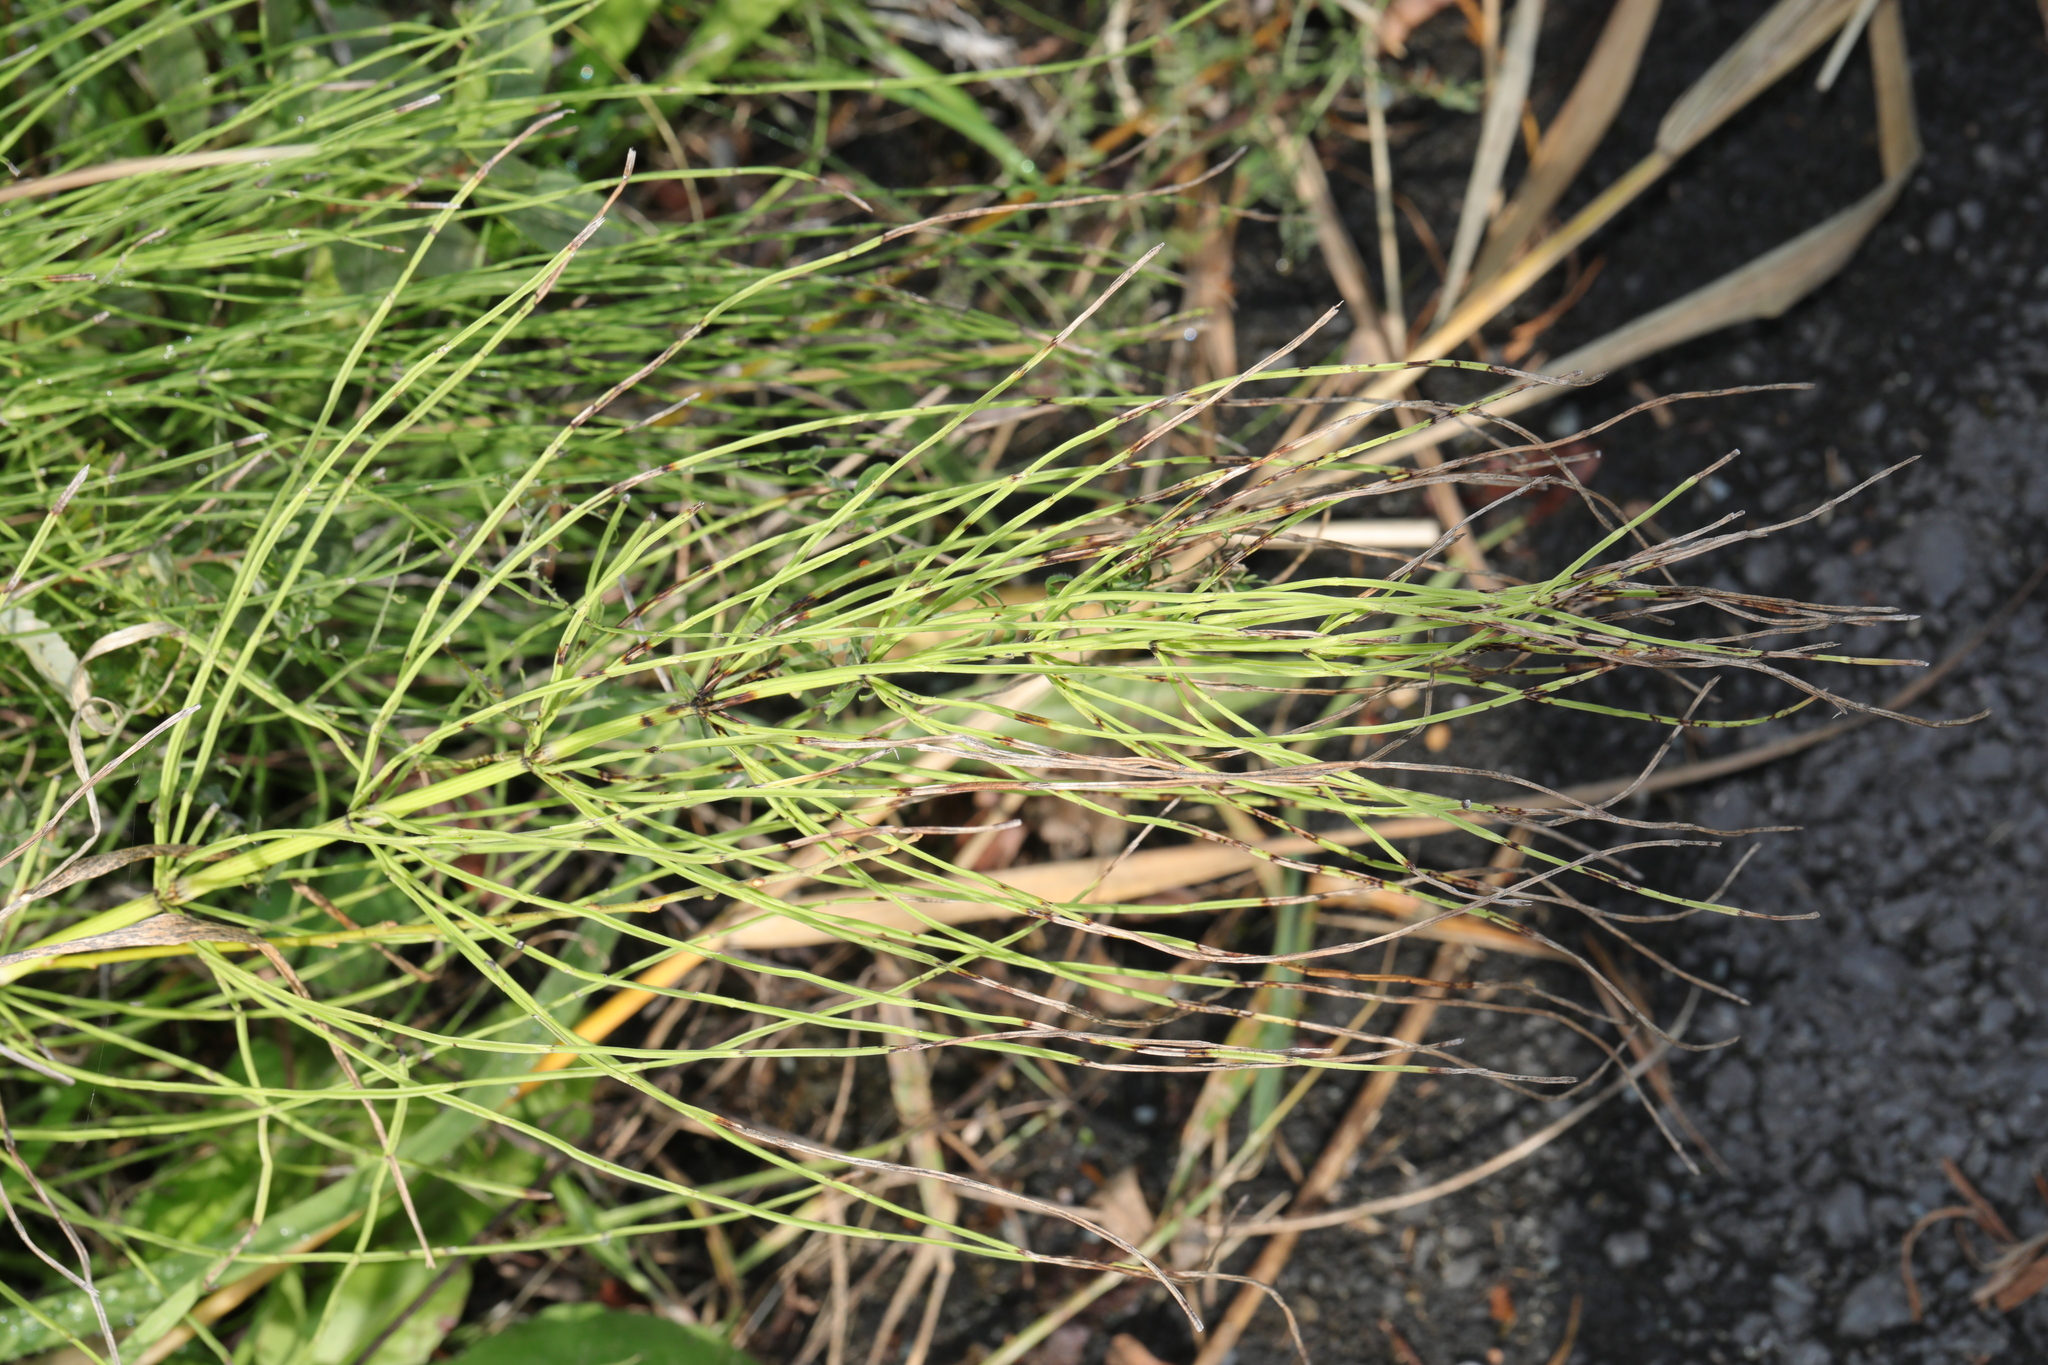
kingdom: Plantae
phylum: Tracheophyta
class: Polypodiopsida
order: Equisetales
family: Equisetaceae
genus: Equisetum
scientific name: Equisetum arvense
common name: Field horsetail
